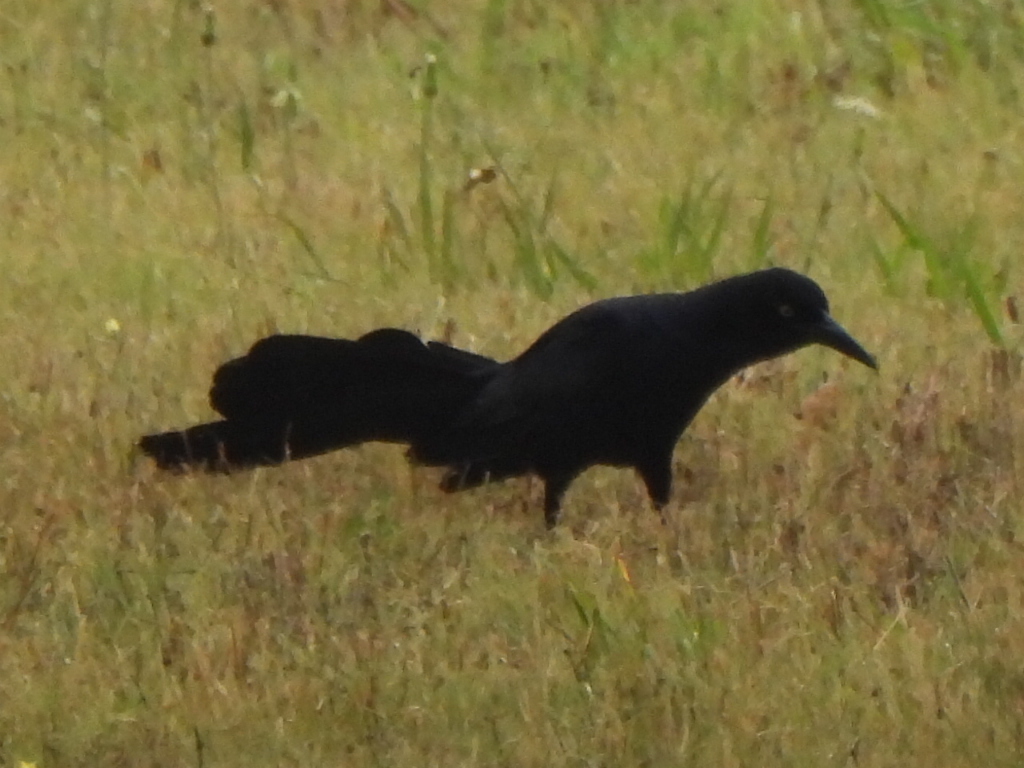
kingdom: Animalia
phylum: Chordata
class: Aves
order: Passeriformes
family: Icteridae
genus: Quiscalus
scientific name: Quiscalus mexicanus
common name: Great-tailed grackle
